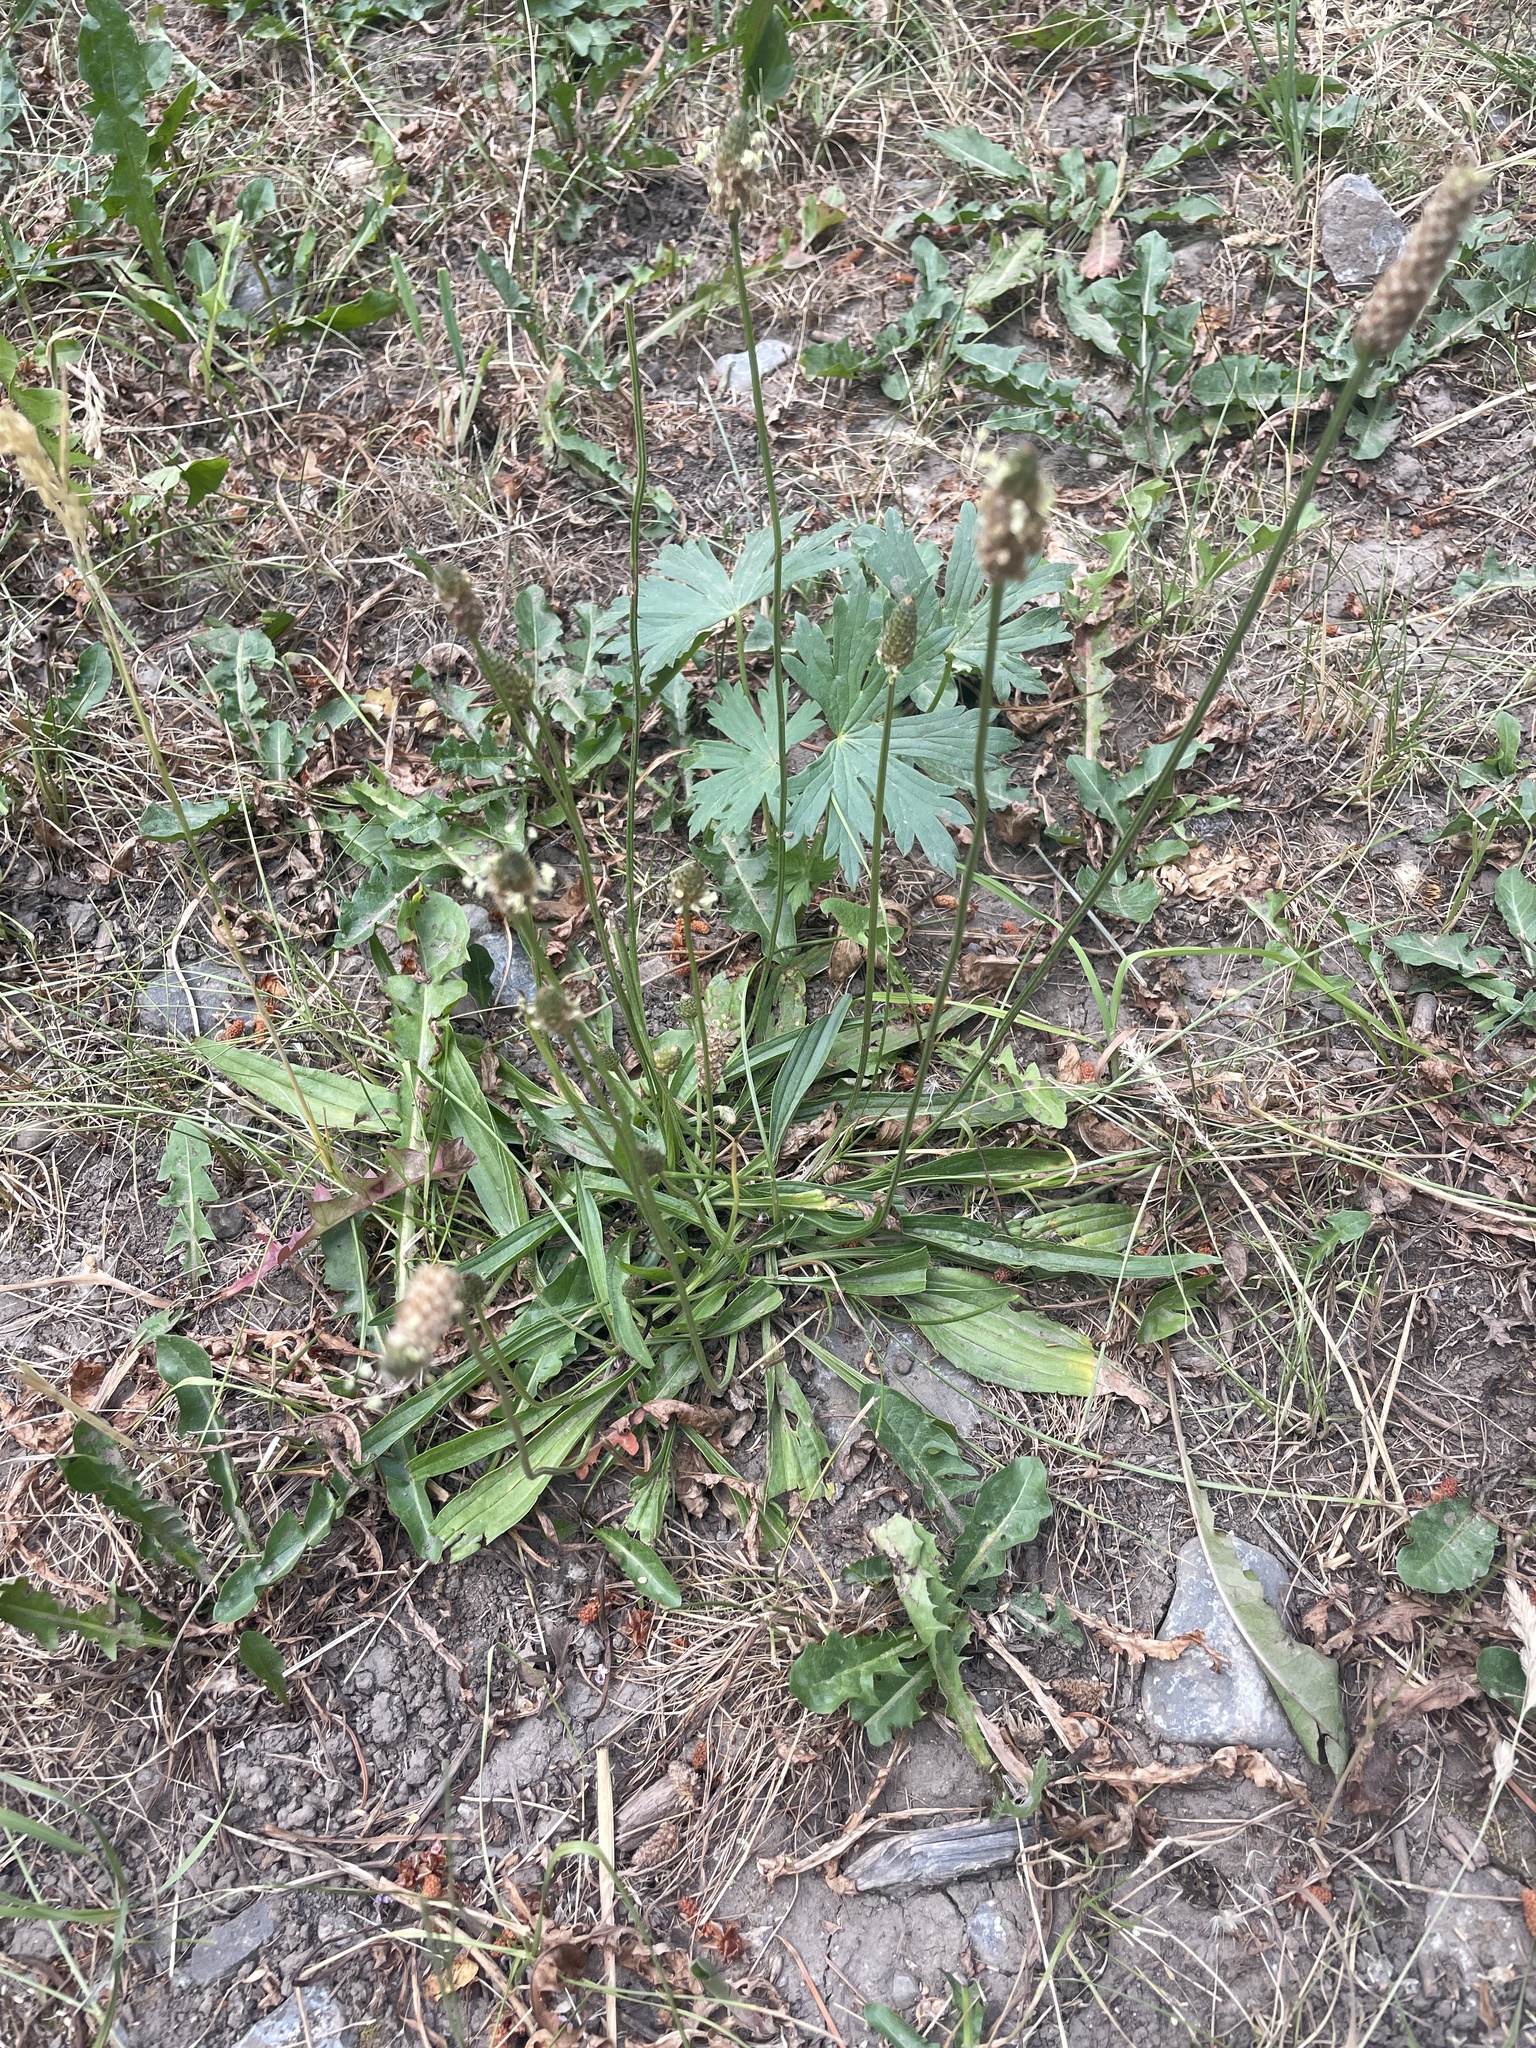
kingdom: Plantae
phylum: Tracheophyta
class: Magnoliopsida
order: Lamiales
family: Plantaginaceae
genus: Plantago
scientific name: Plantago lanceolata
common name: Ribwort plantain
